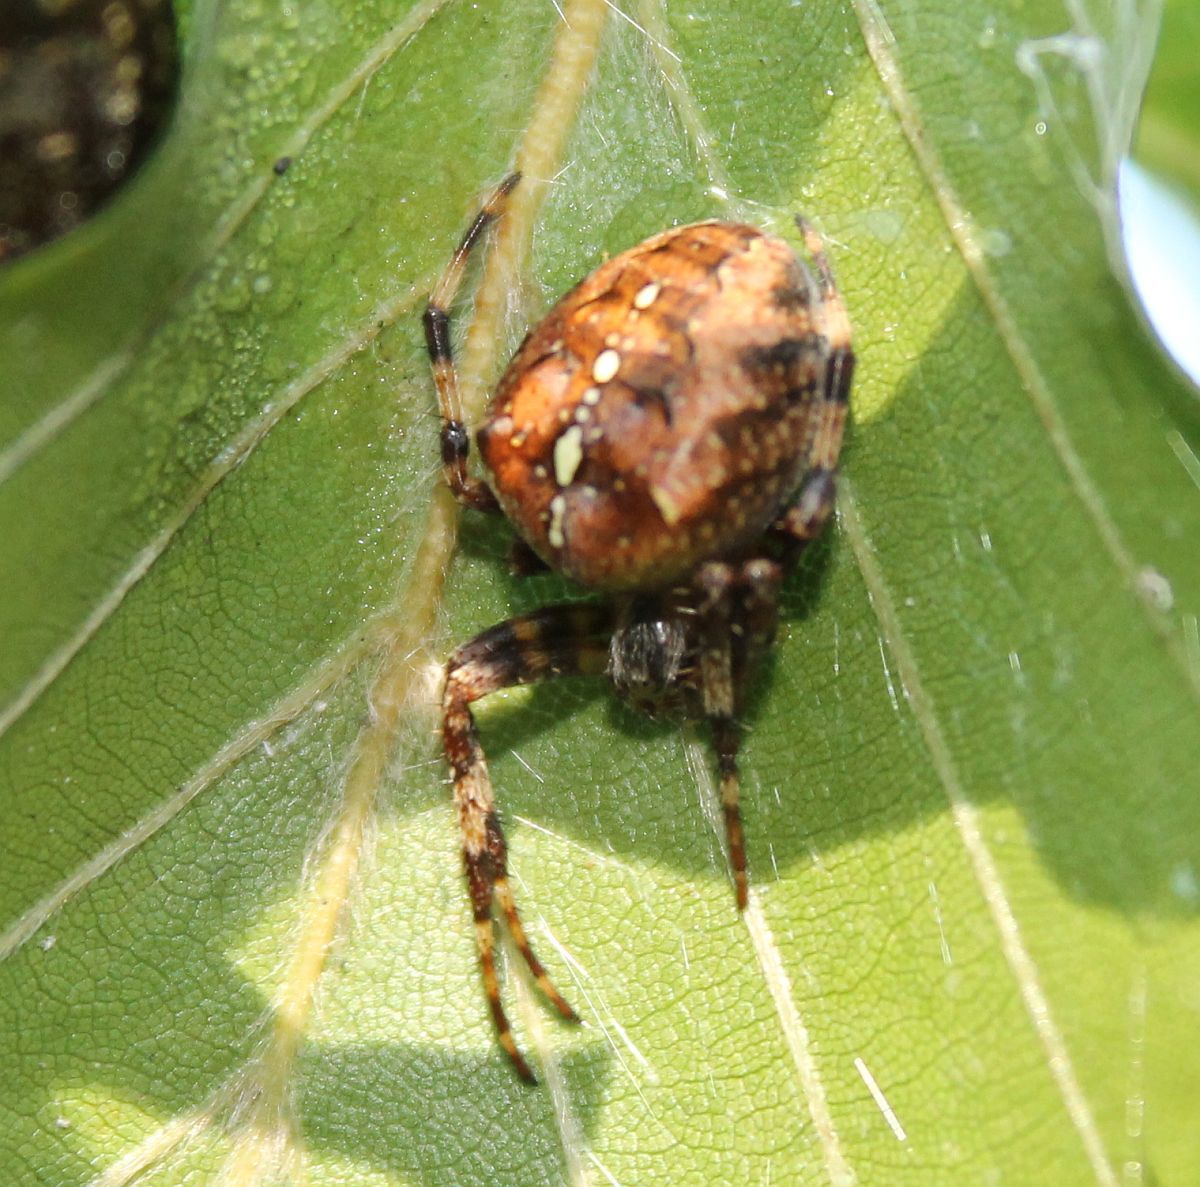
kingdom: Animalia
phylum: Arthropoda
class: Arachnida
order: Araneae
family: Araneidae
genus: Araneus
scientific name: Araneus diadematus
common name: Cross orbweaver
